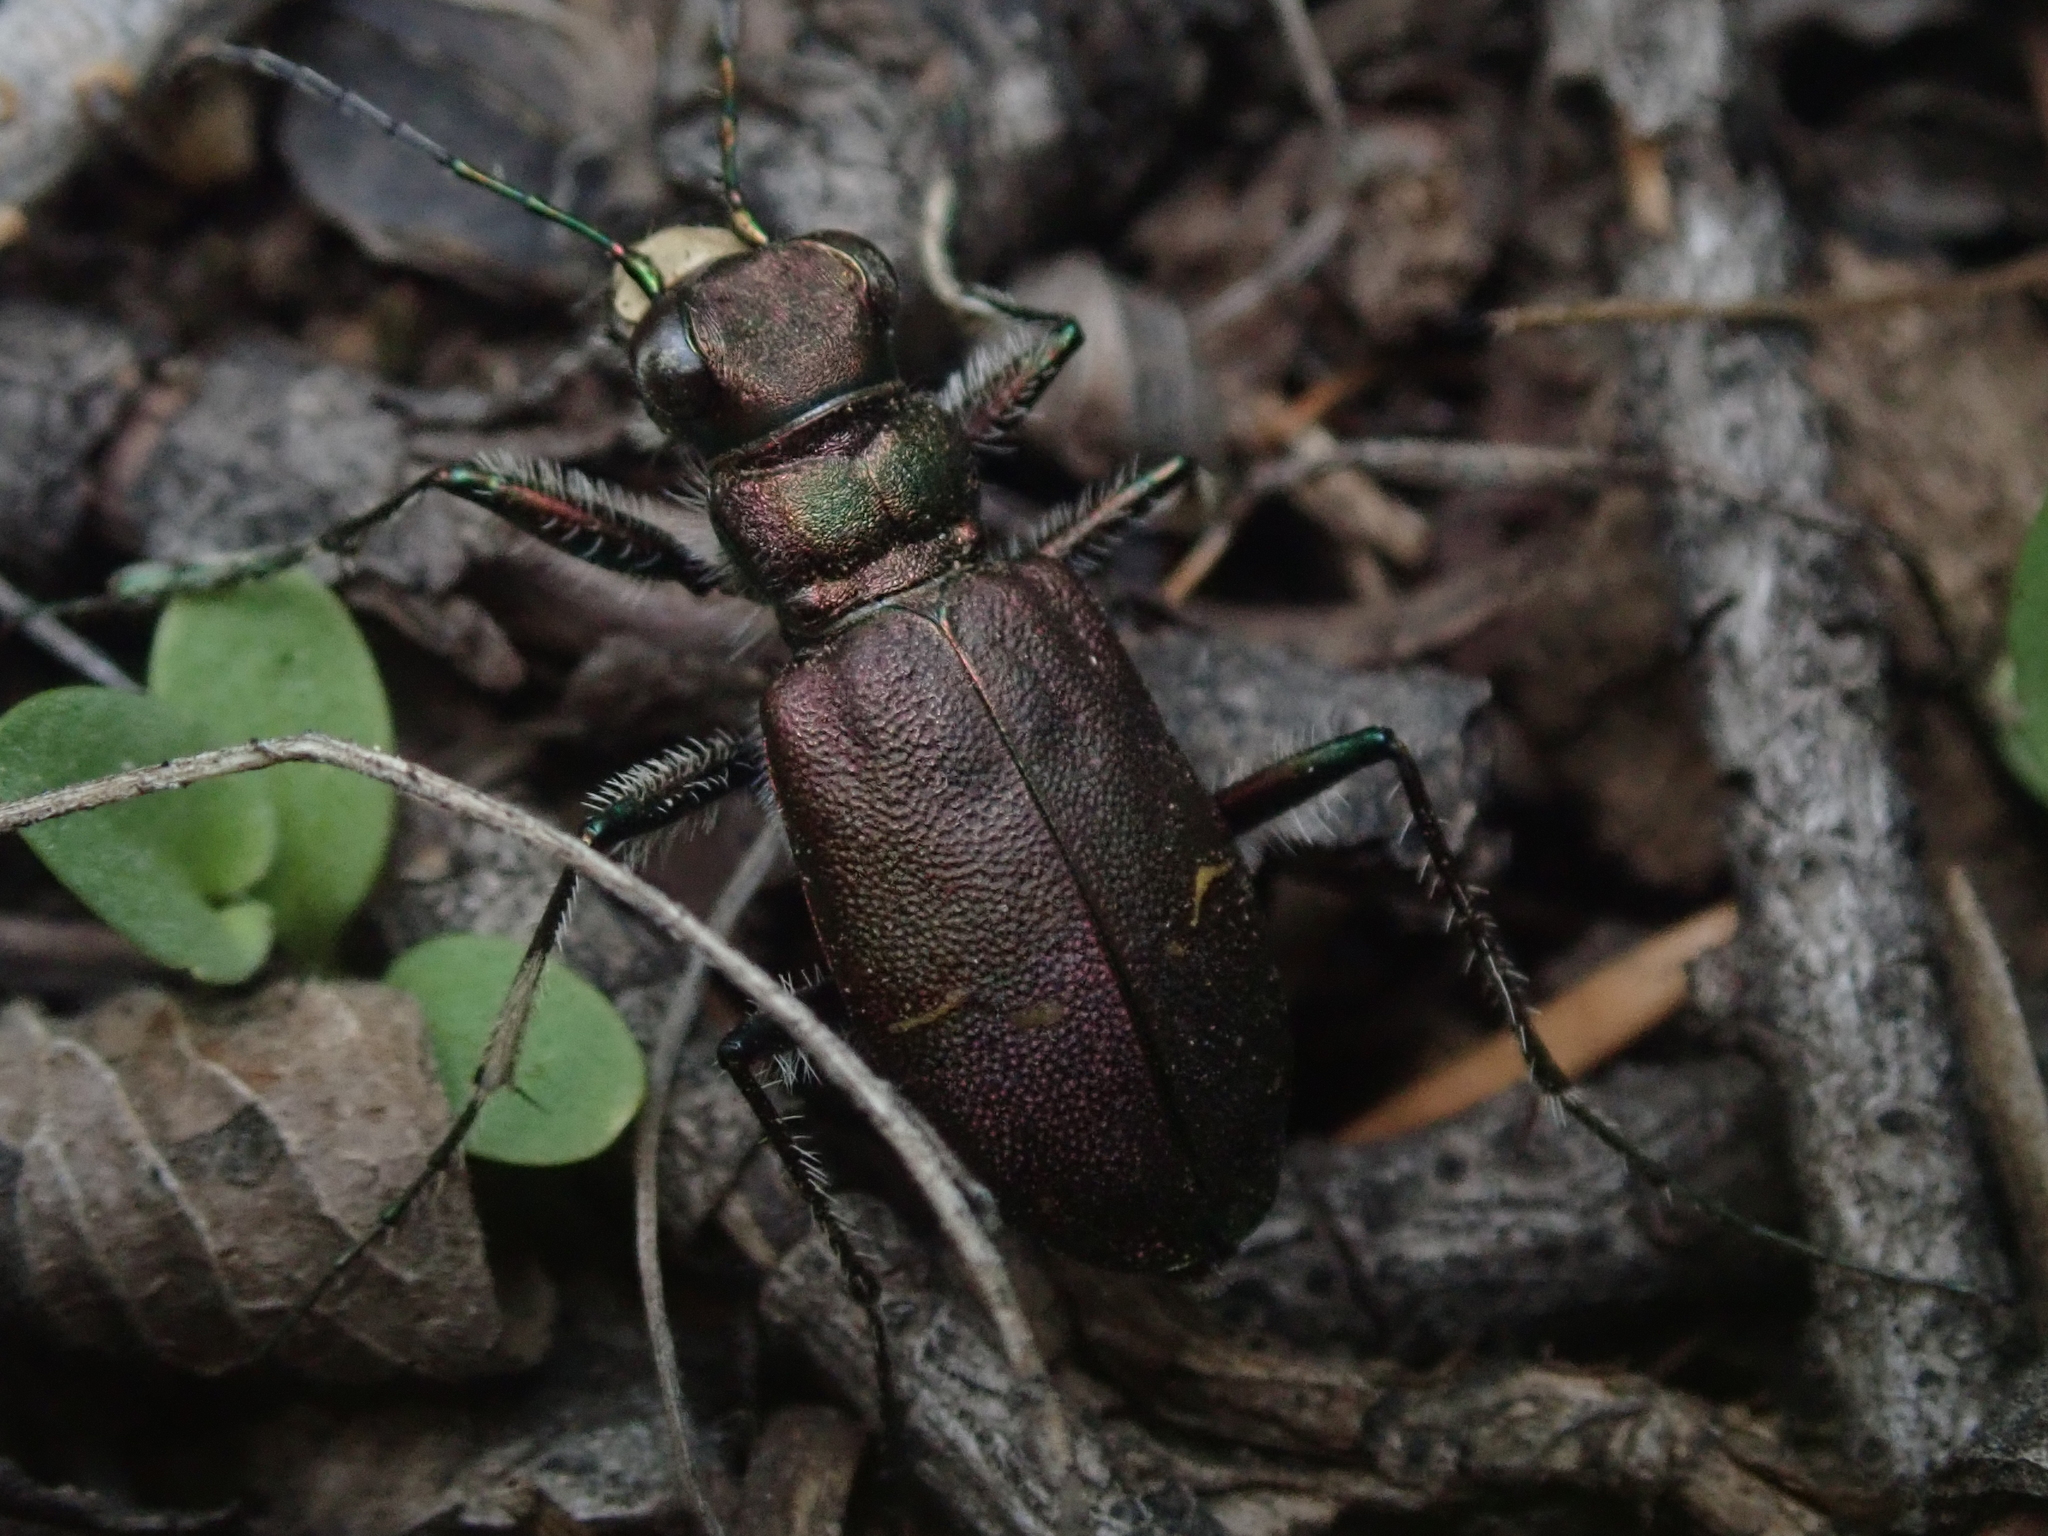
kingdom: Animalia
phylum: Arthropoda
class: Insecta
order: Coleoptera
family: Carabidae
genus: Cicindela
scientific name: Cicindela longilabris
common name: Boreal long-lipped tiger beetle
